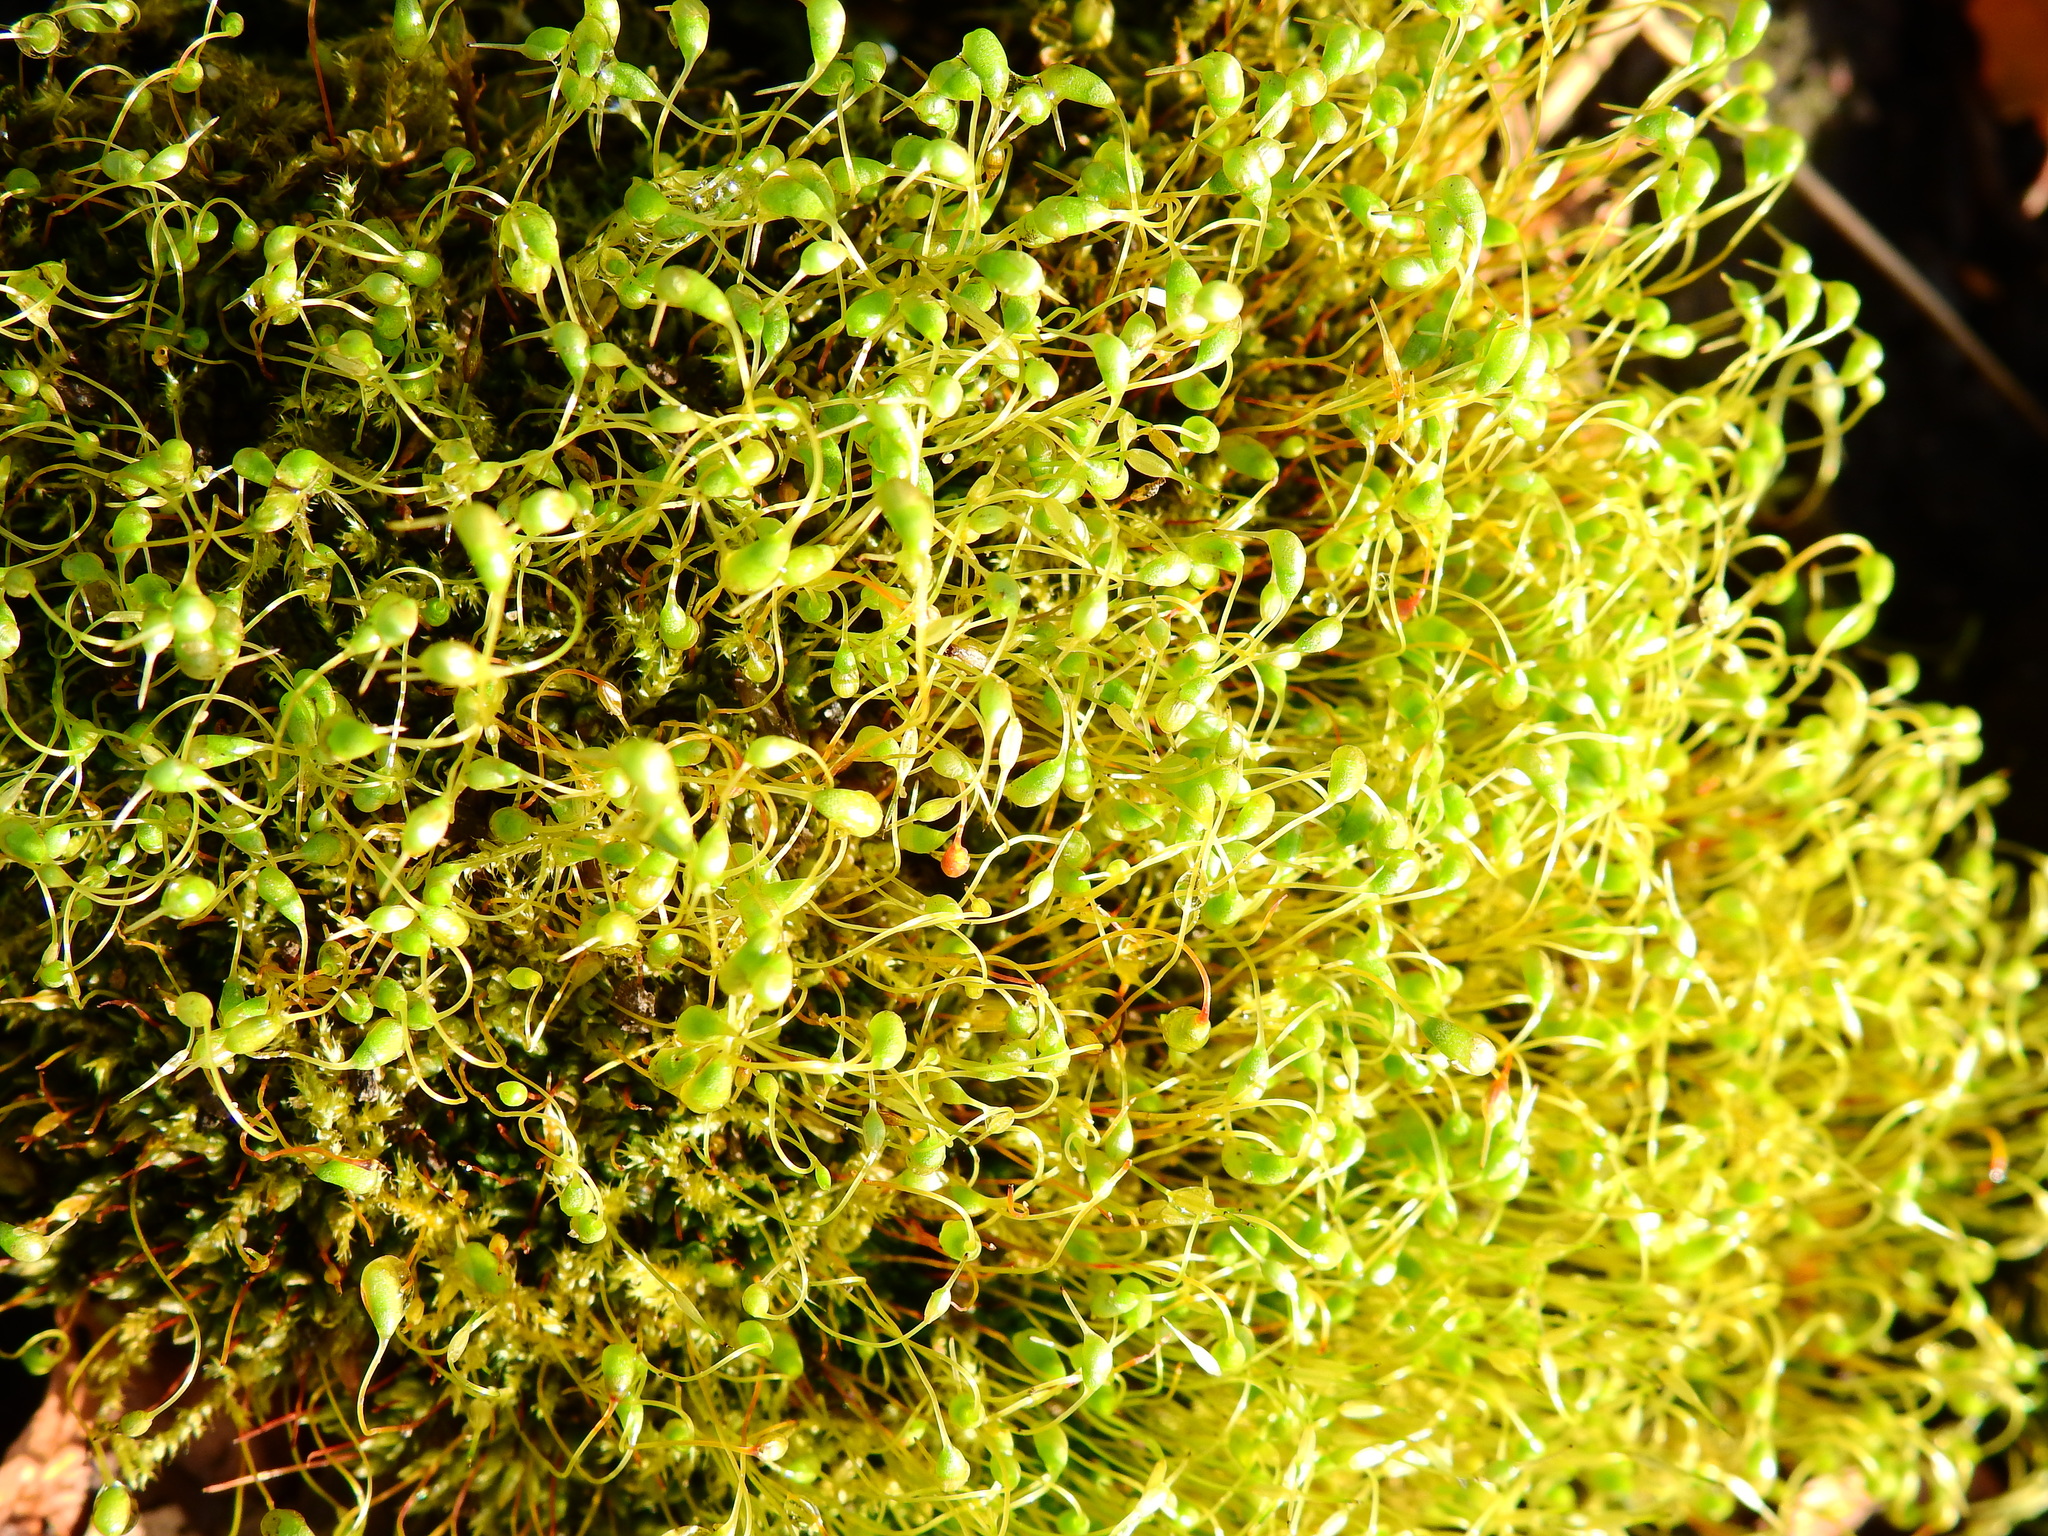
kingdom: Plantae
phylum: Bryophyta
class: Bryopsida
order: Funariales
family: Funariaceae
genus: Funaria
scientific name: Funaria hygrometrica
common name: Common cord moss
